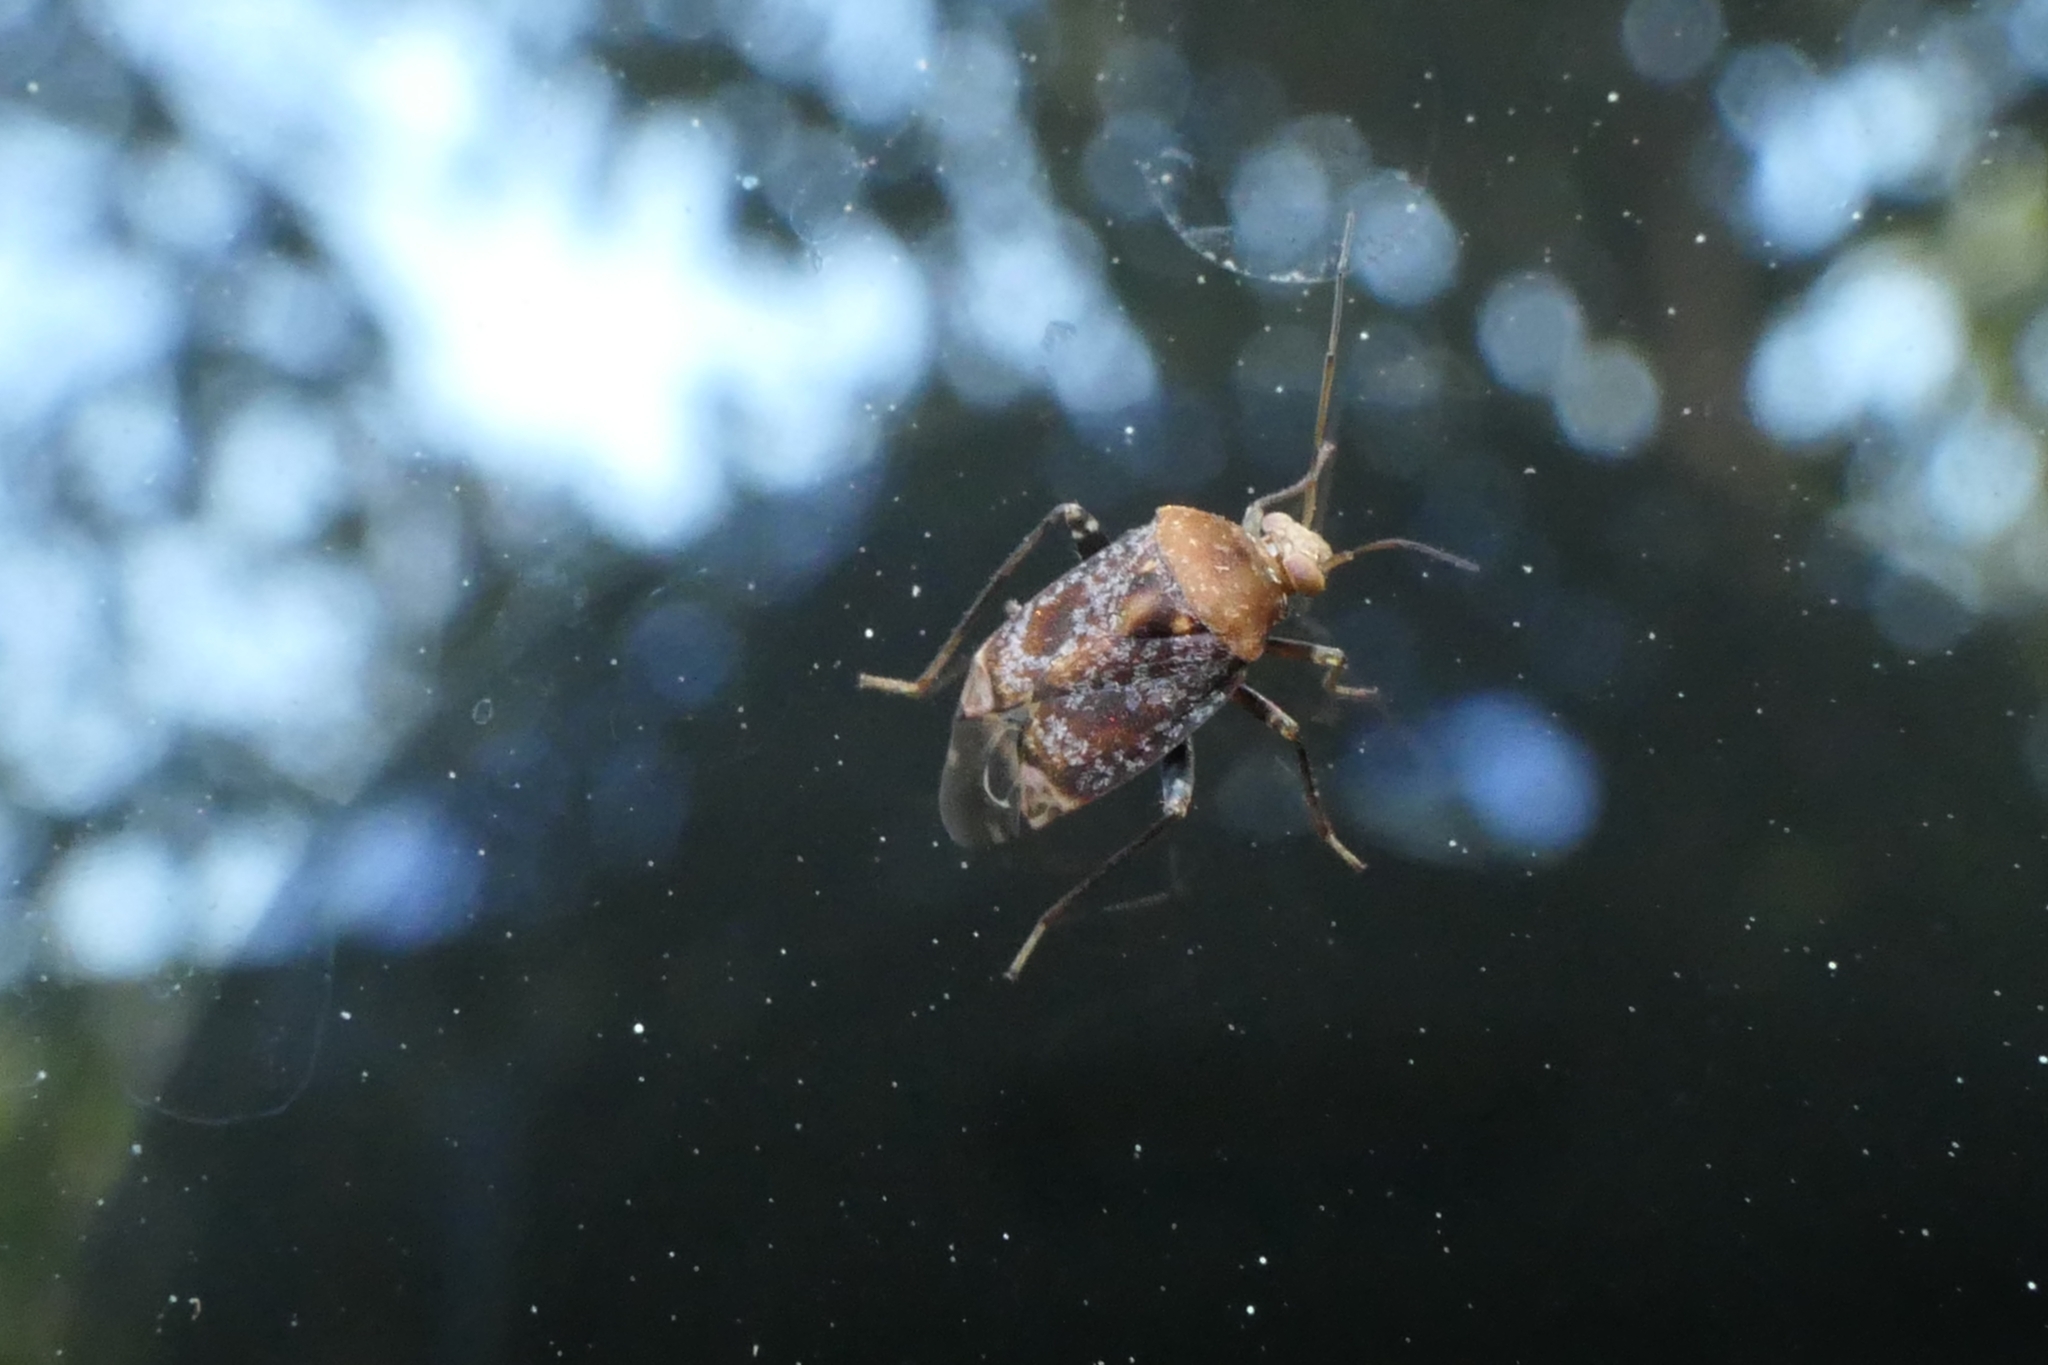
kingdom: Animalia
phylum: Arthropoda
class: Insecta
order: Hemiptera
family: Miridae
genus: Wekamiris
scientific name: Wekamiris auropilosus
